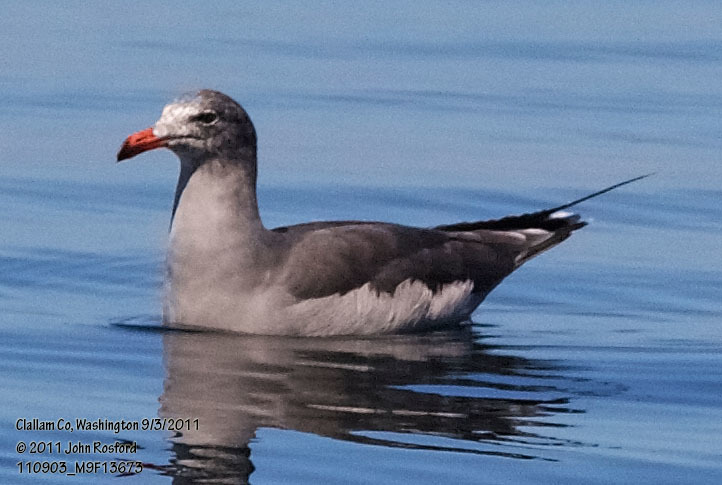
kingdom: Animalia
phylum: Chordata
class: Aves
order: Charadriiformes
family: Laridae
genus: Larus
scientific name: Larus heermanni
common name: Heermann's gull
